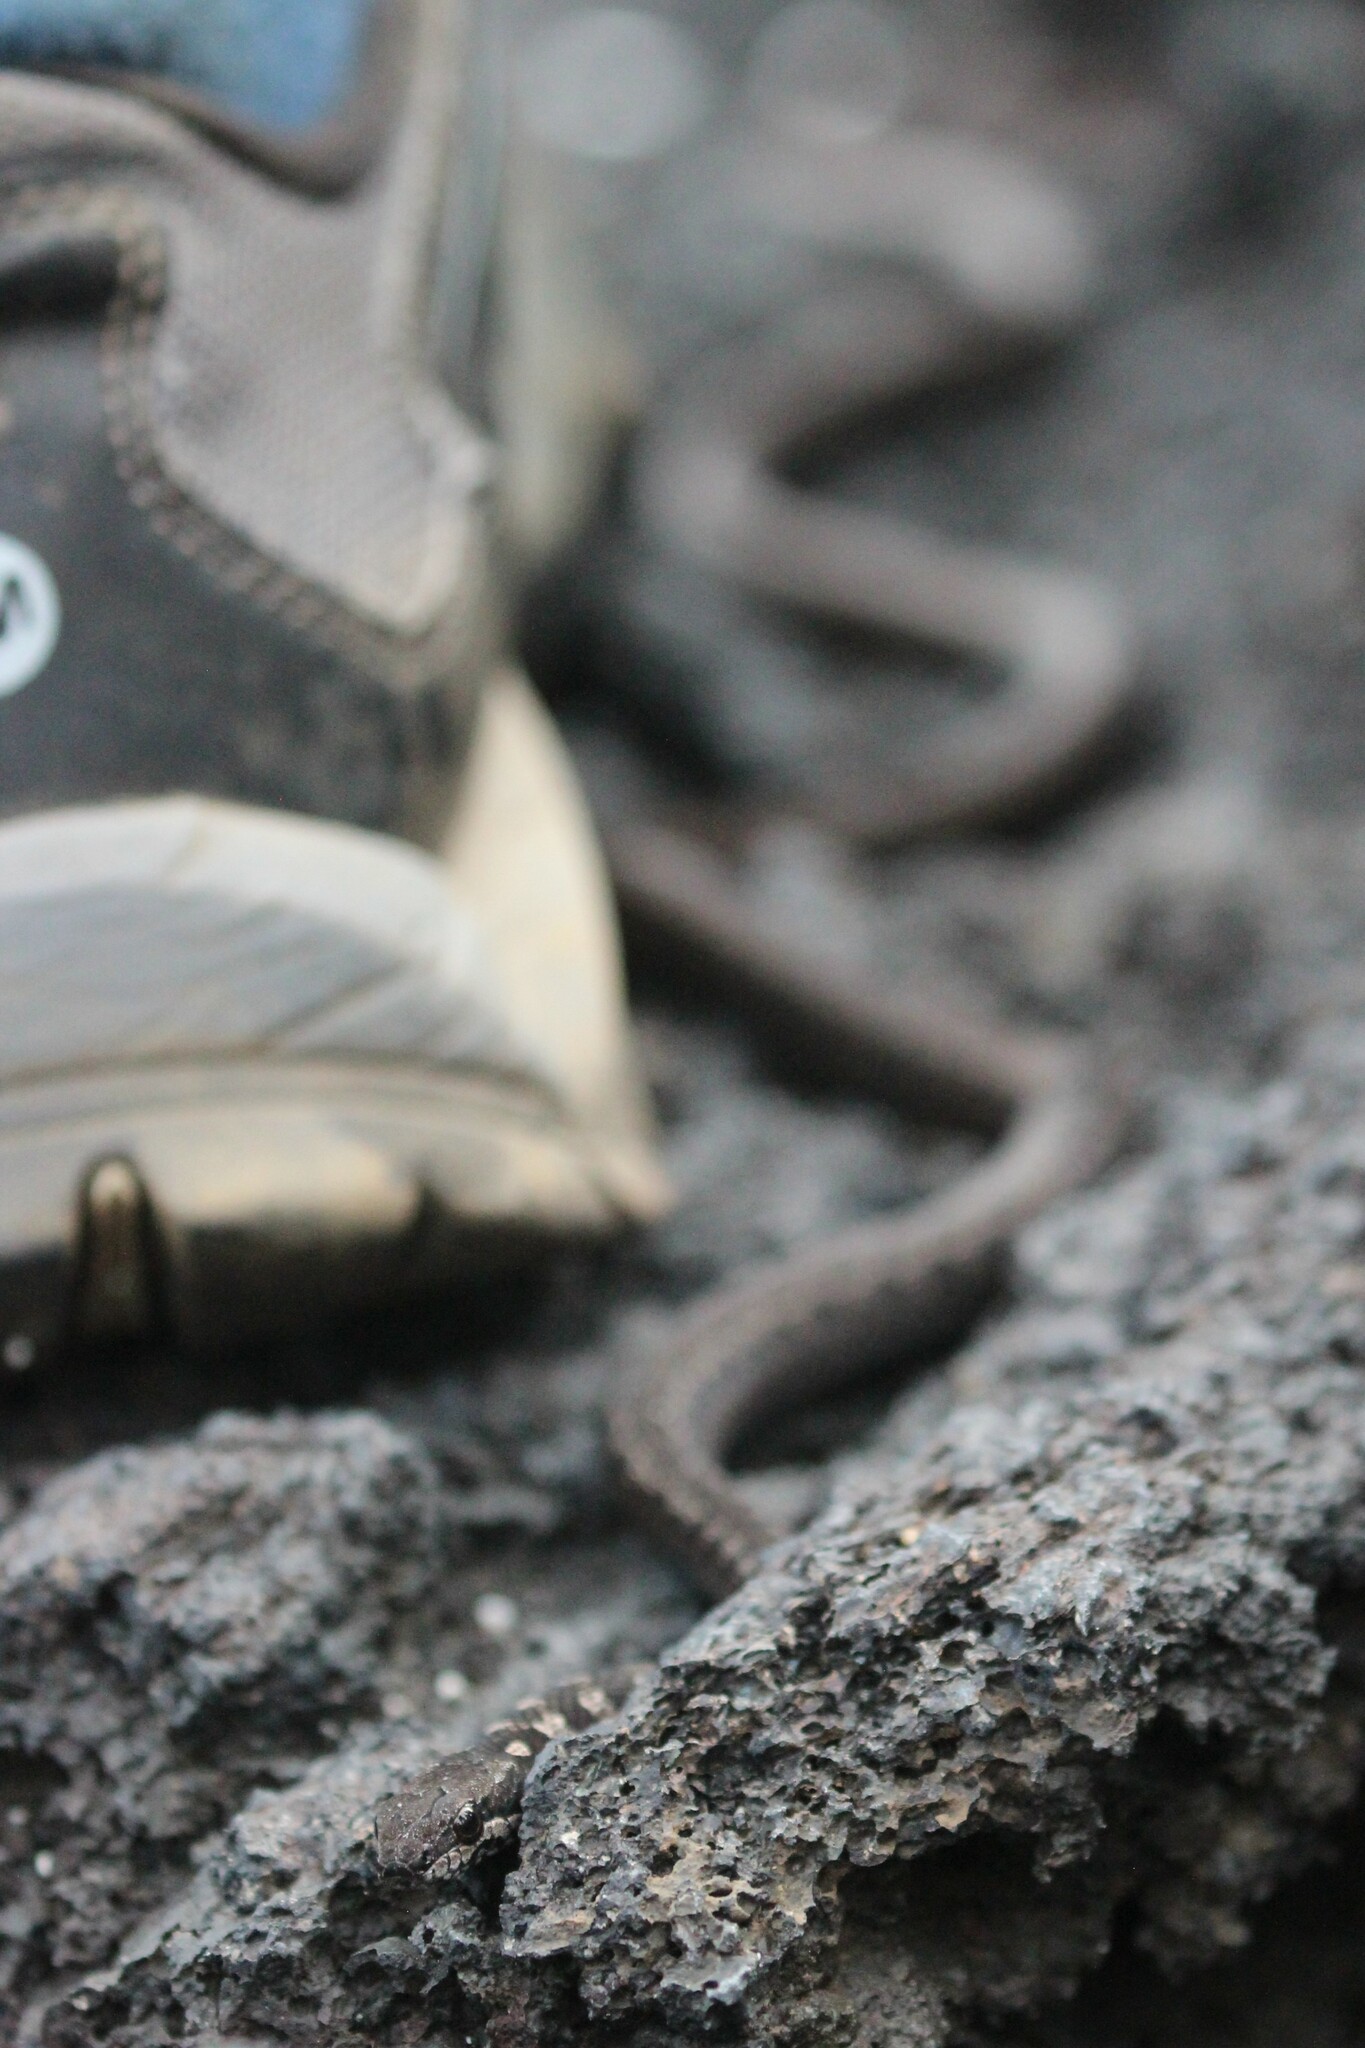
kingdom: Animalia
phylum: Chordata
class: Squamata
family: Colubridae
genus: Pseudalsophis
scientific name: Pseudalsophis occidentalis
